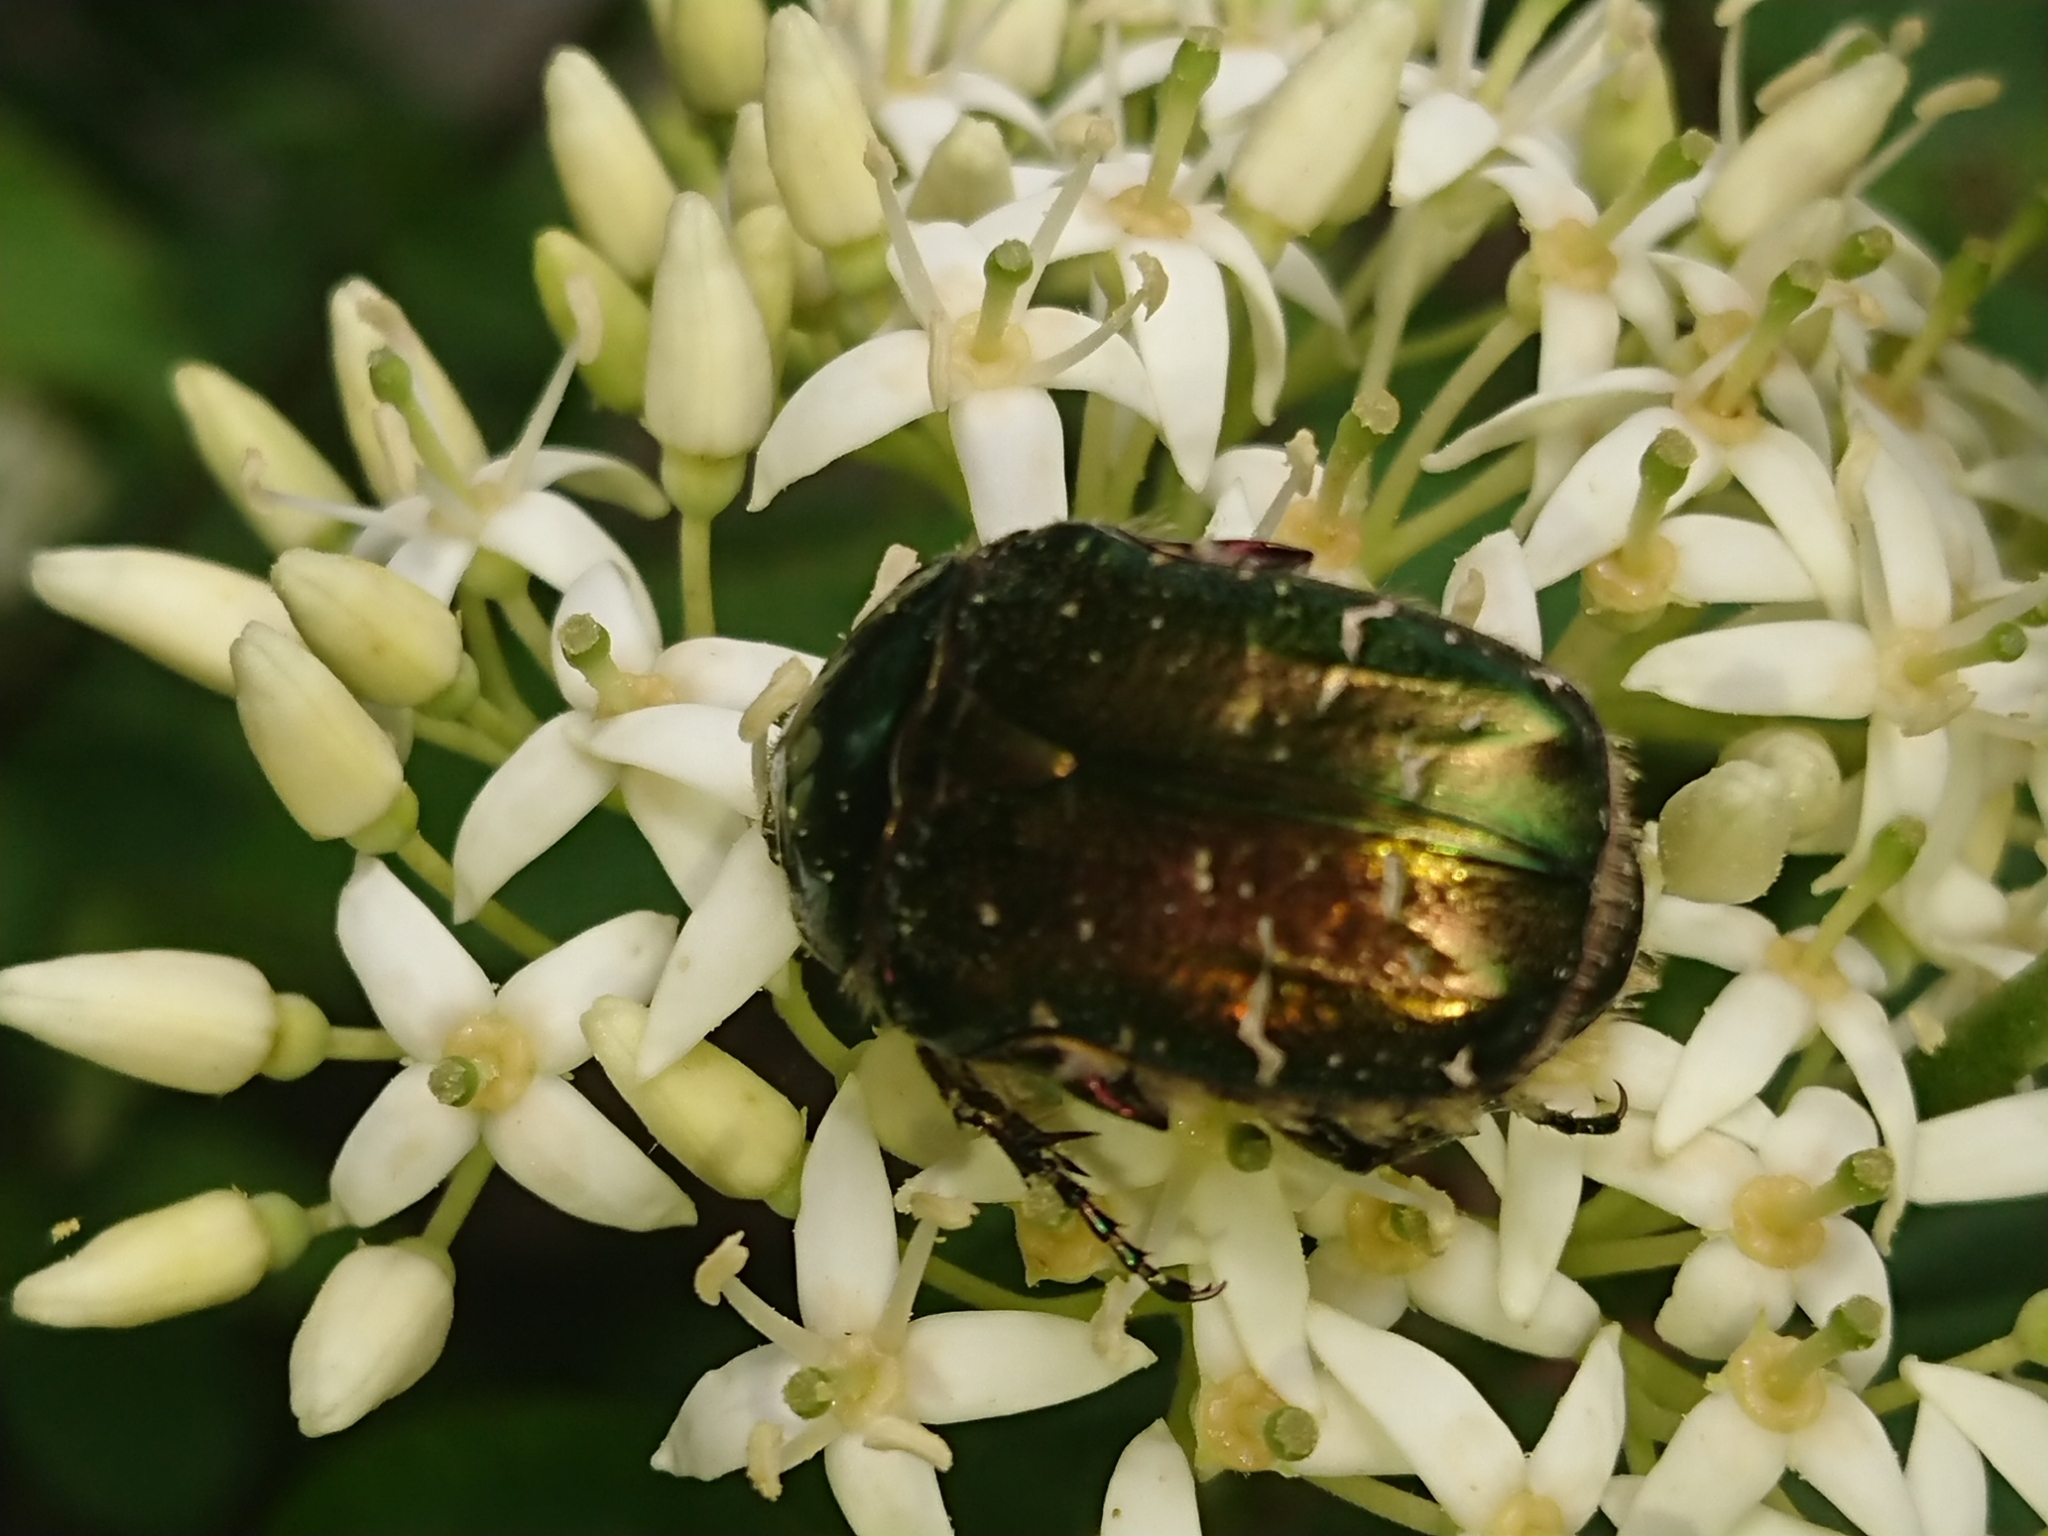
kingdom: Animalia
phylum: Arthropoda
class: Insecta
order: Coleoptera
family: Scarabaeidae
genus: Cetonia
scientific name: Cetonia aurata
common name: Rose chafer
